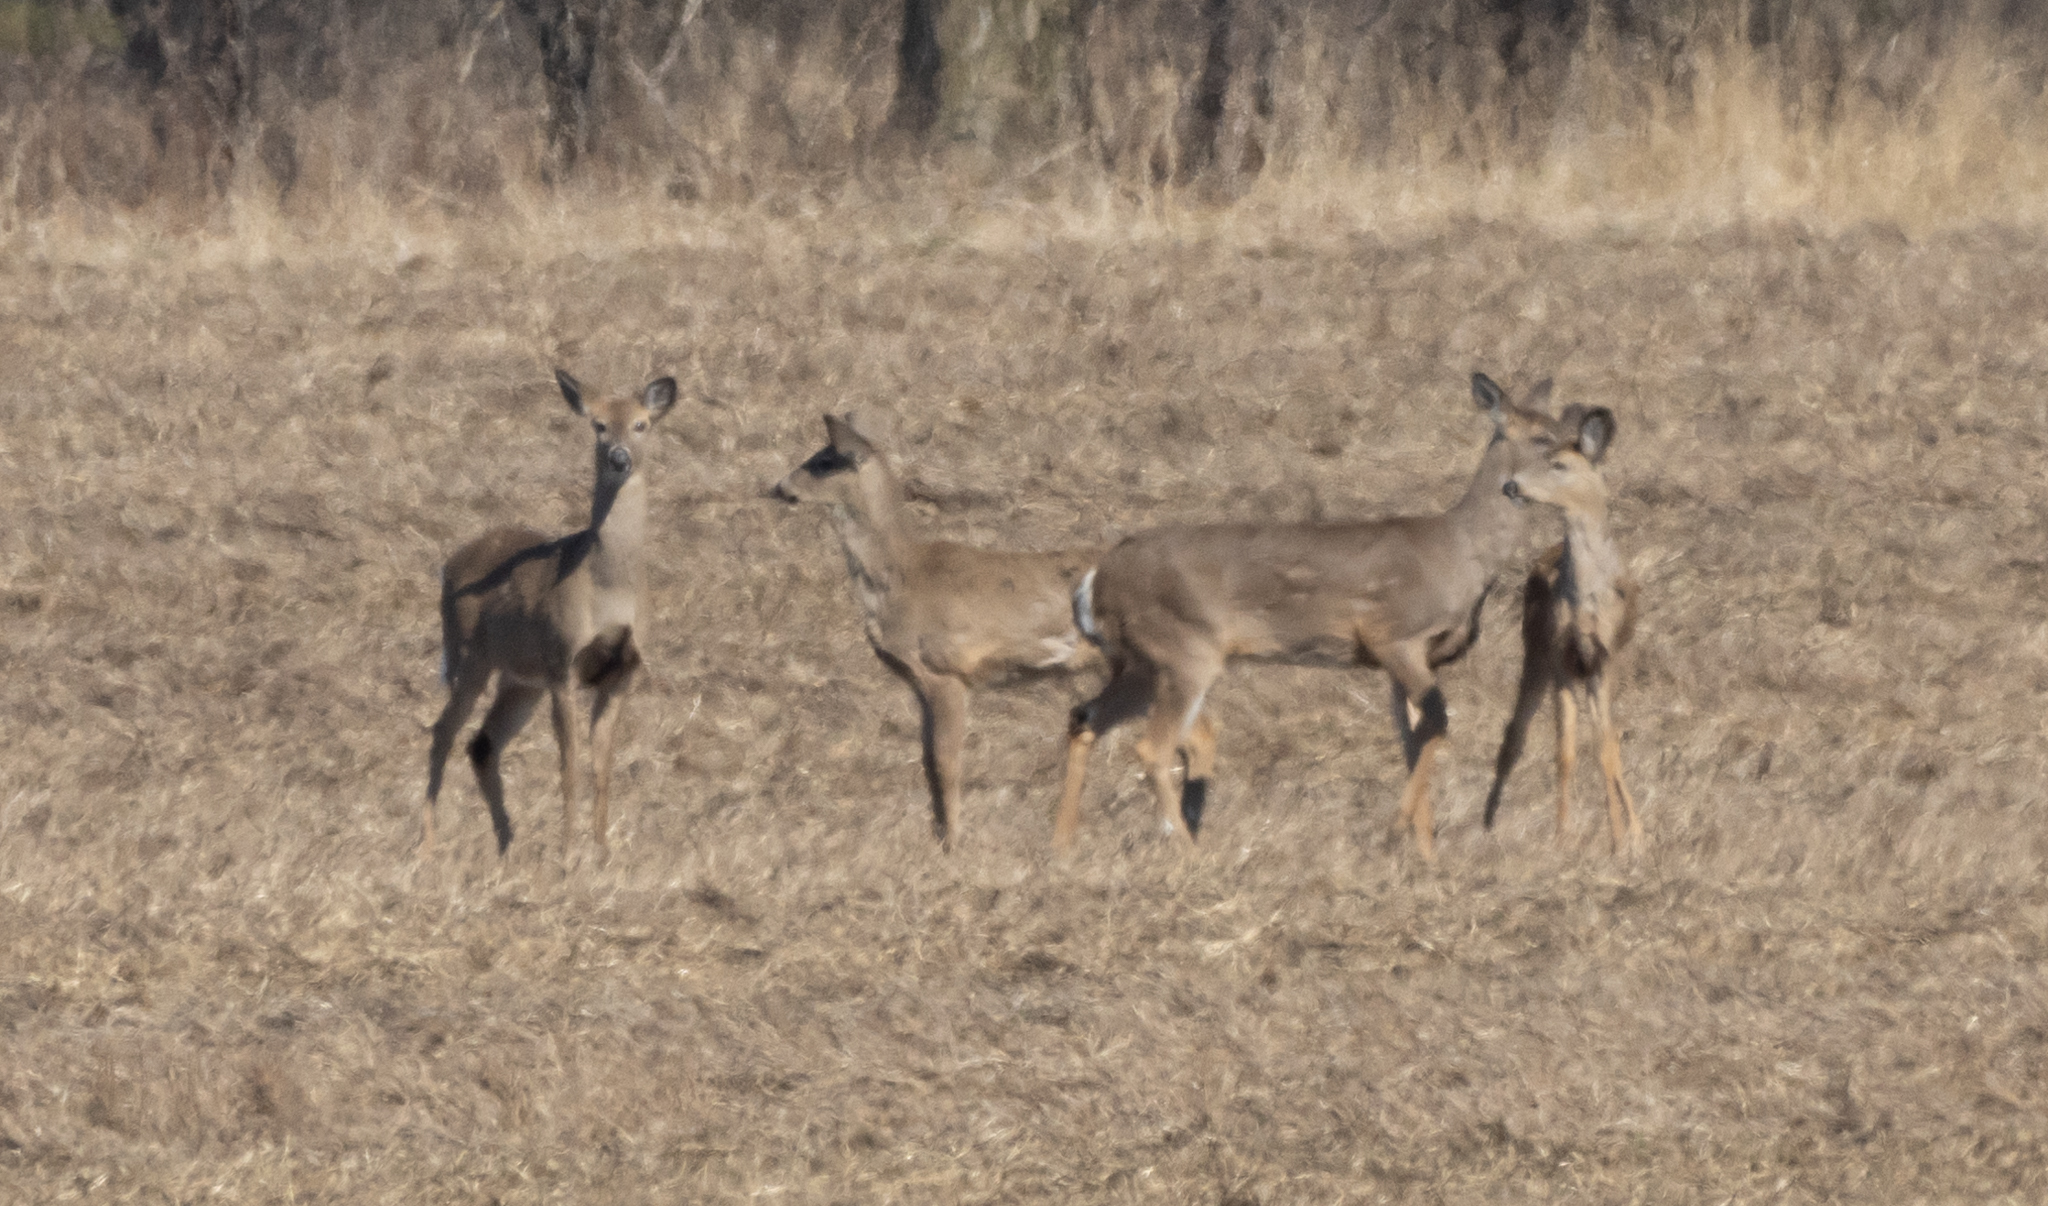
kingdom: Animalia
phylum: Chordata
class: Mammalia
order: Artiodactyla
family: Cervidae
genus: Odocoileus
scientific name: Odocoileus virginianus
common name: White-tailed deer
